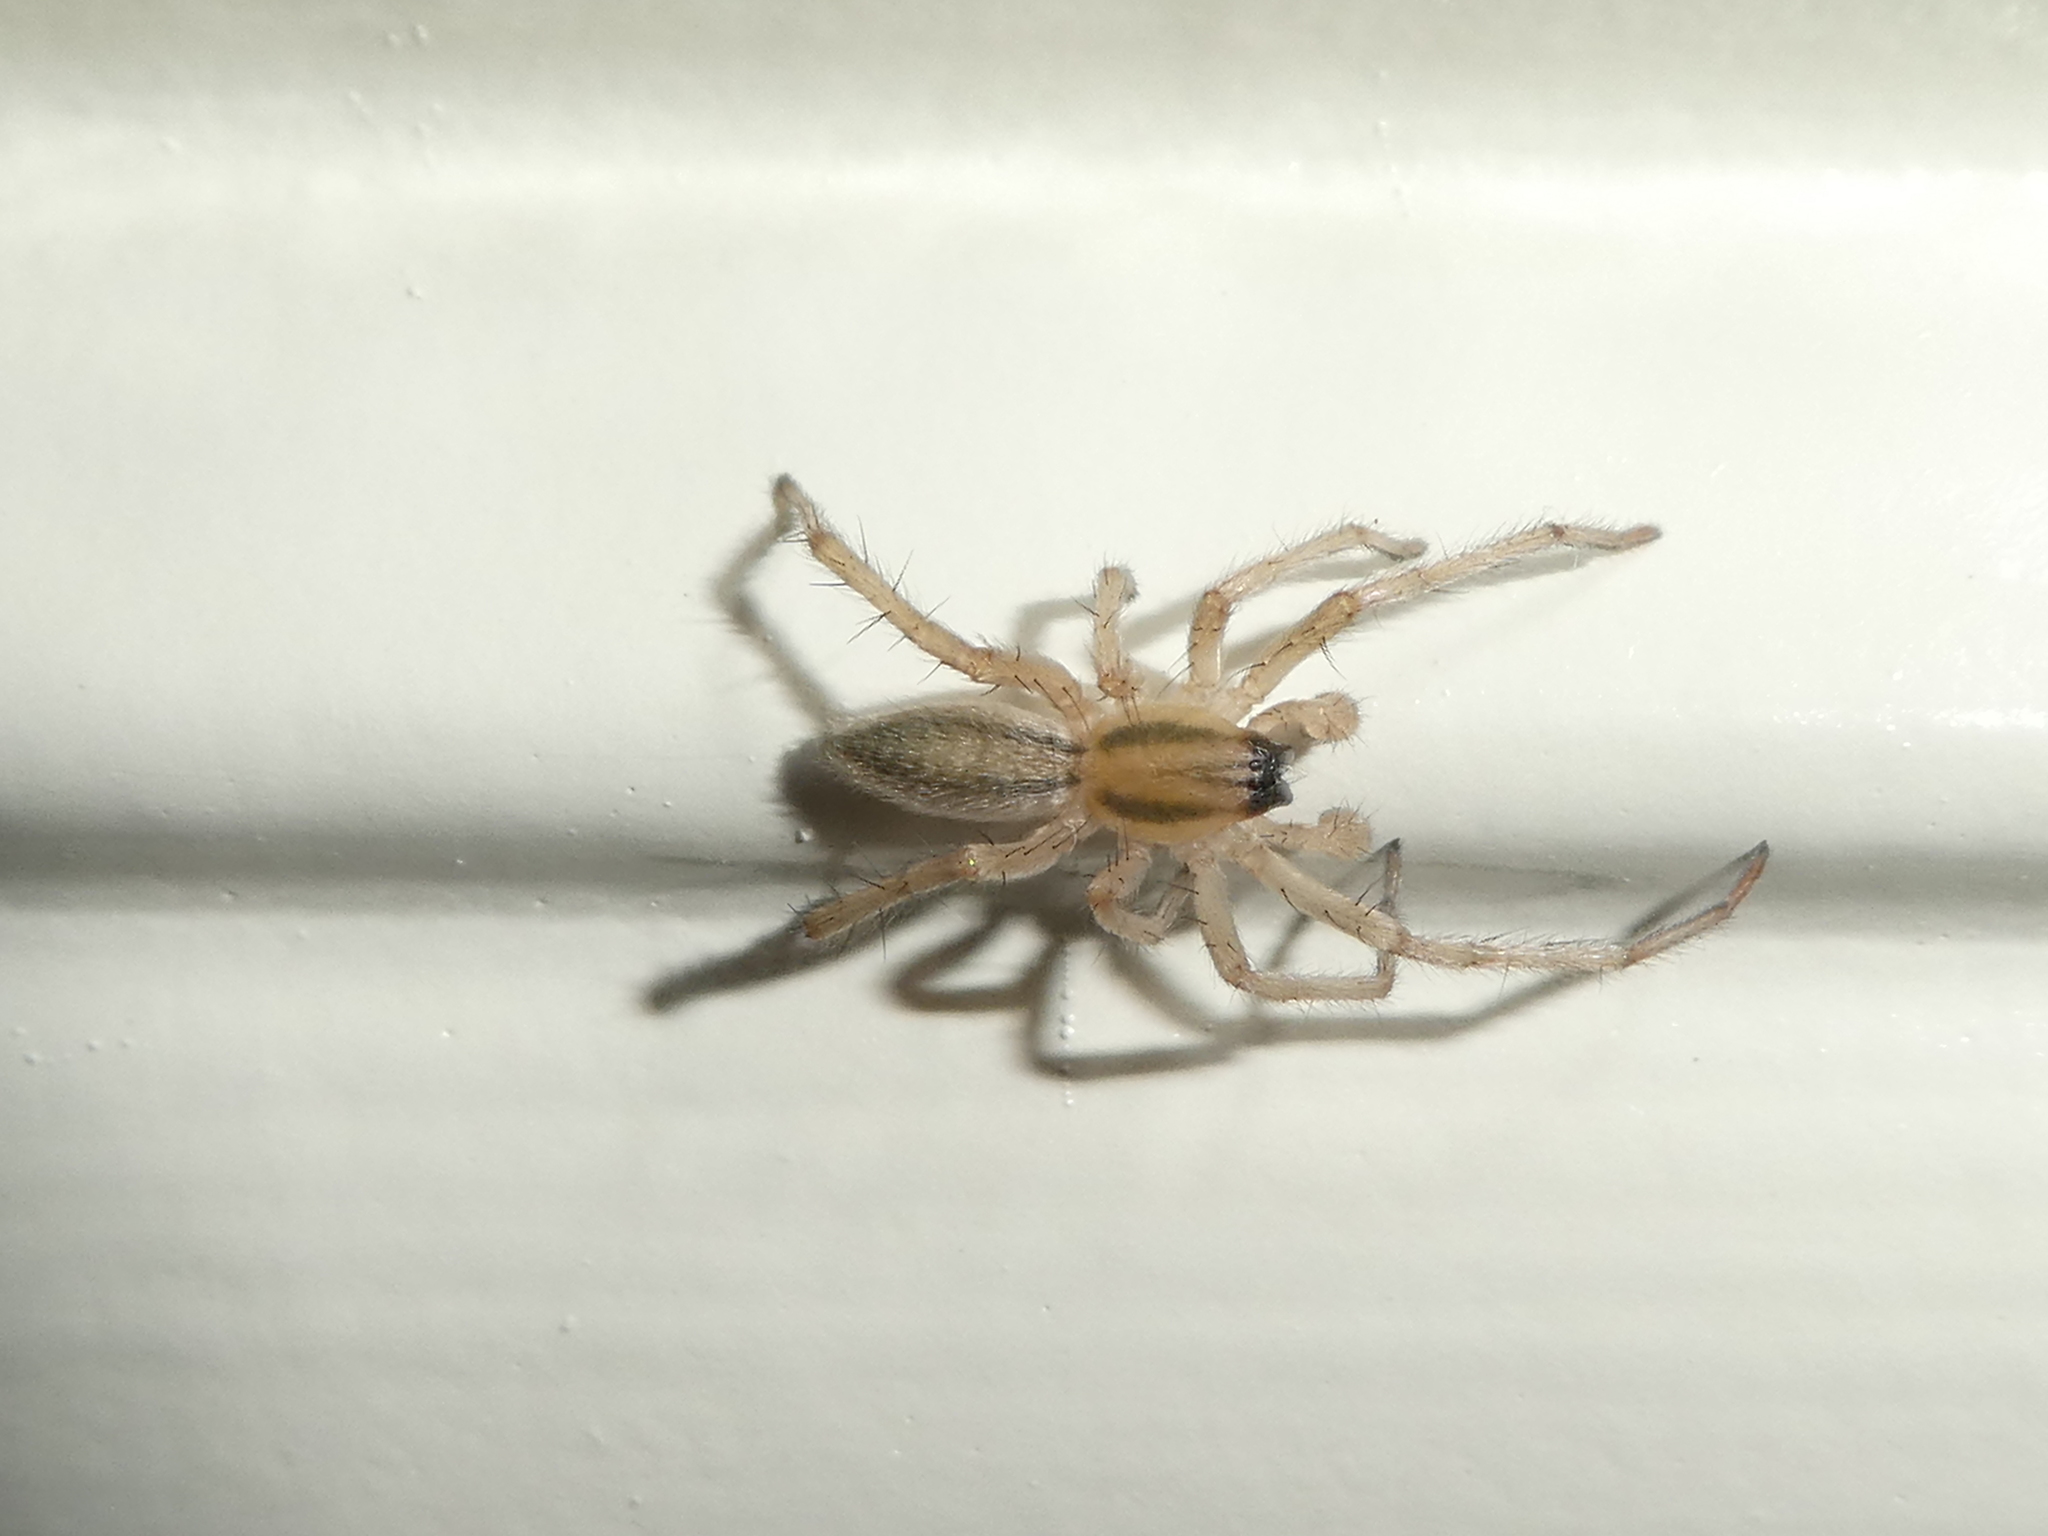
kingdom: Animalia
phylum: Arthropoda
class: Arachnida
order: Araneae
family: Anyphaenidae
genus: Hibana
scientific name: Hibana incursa
